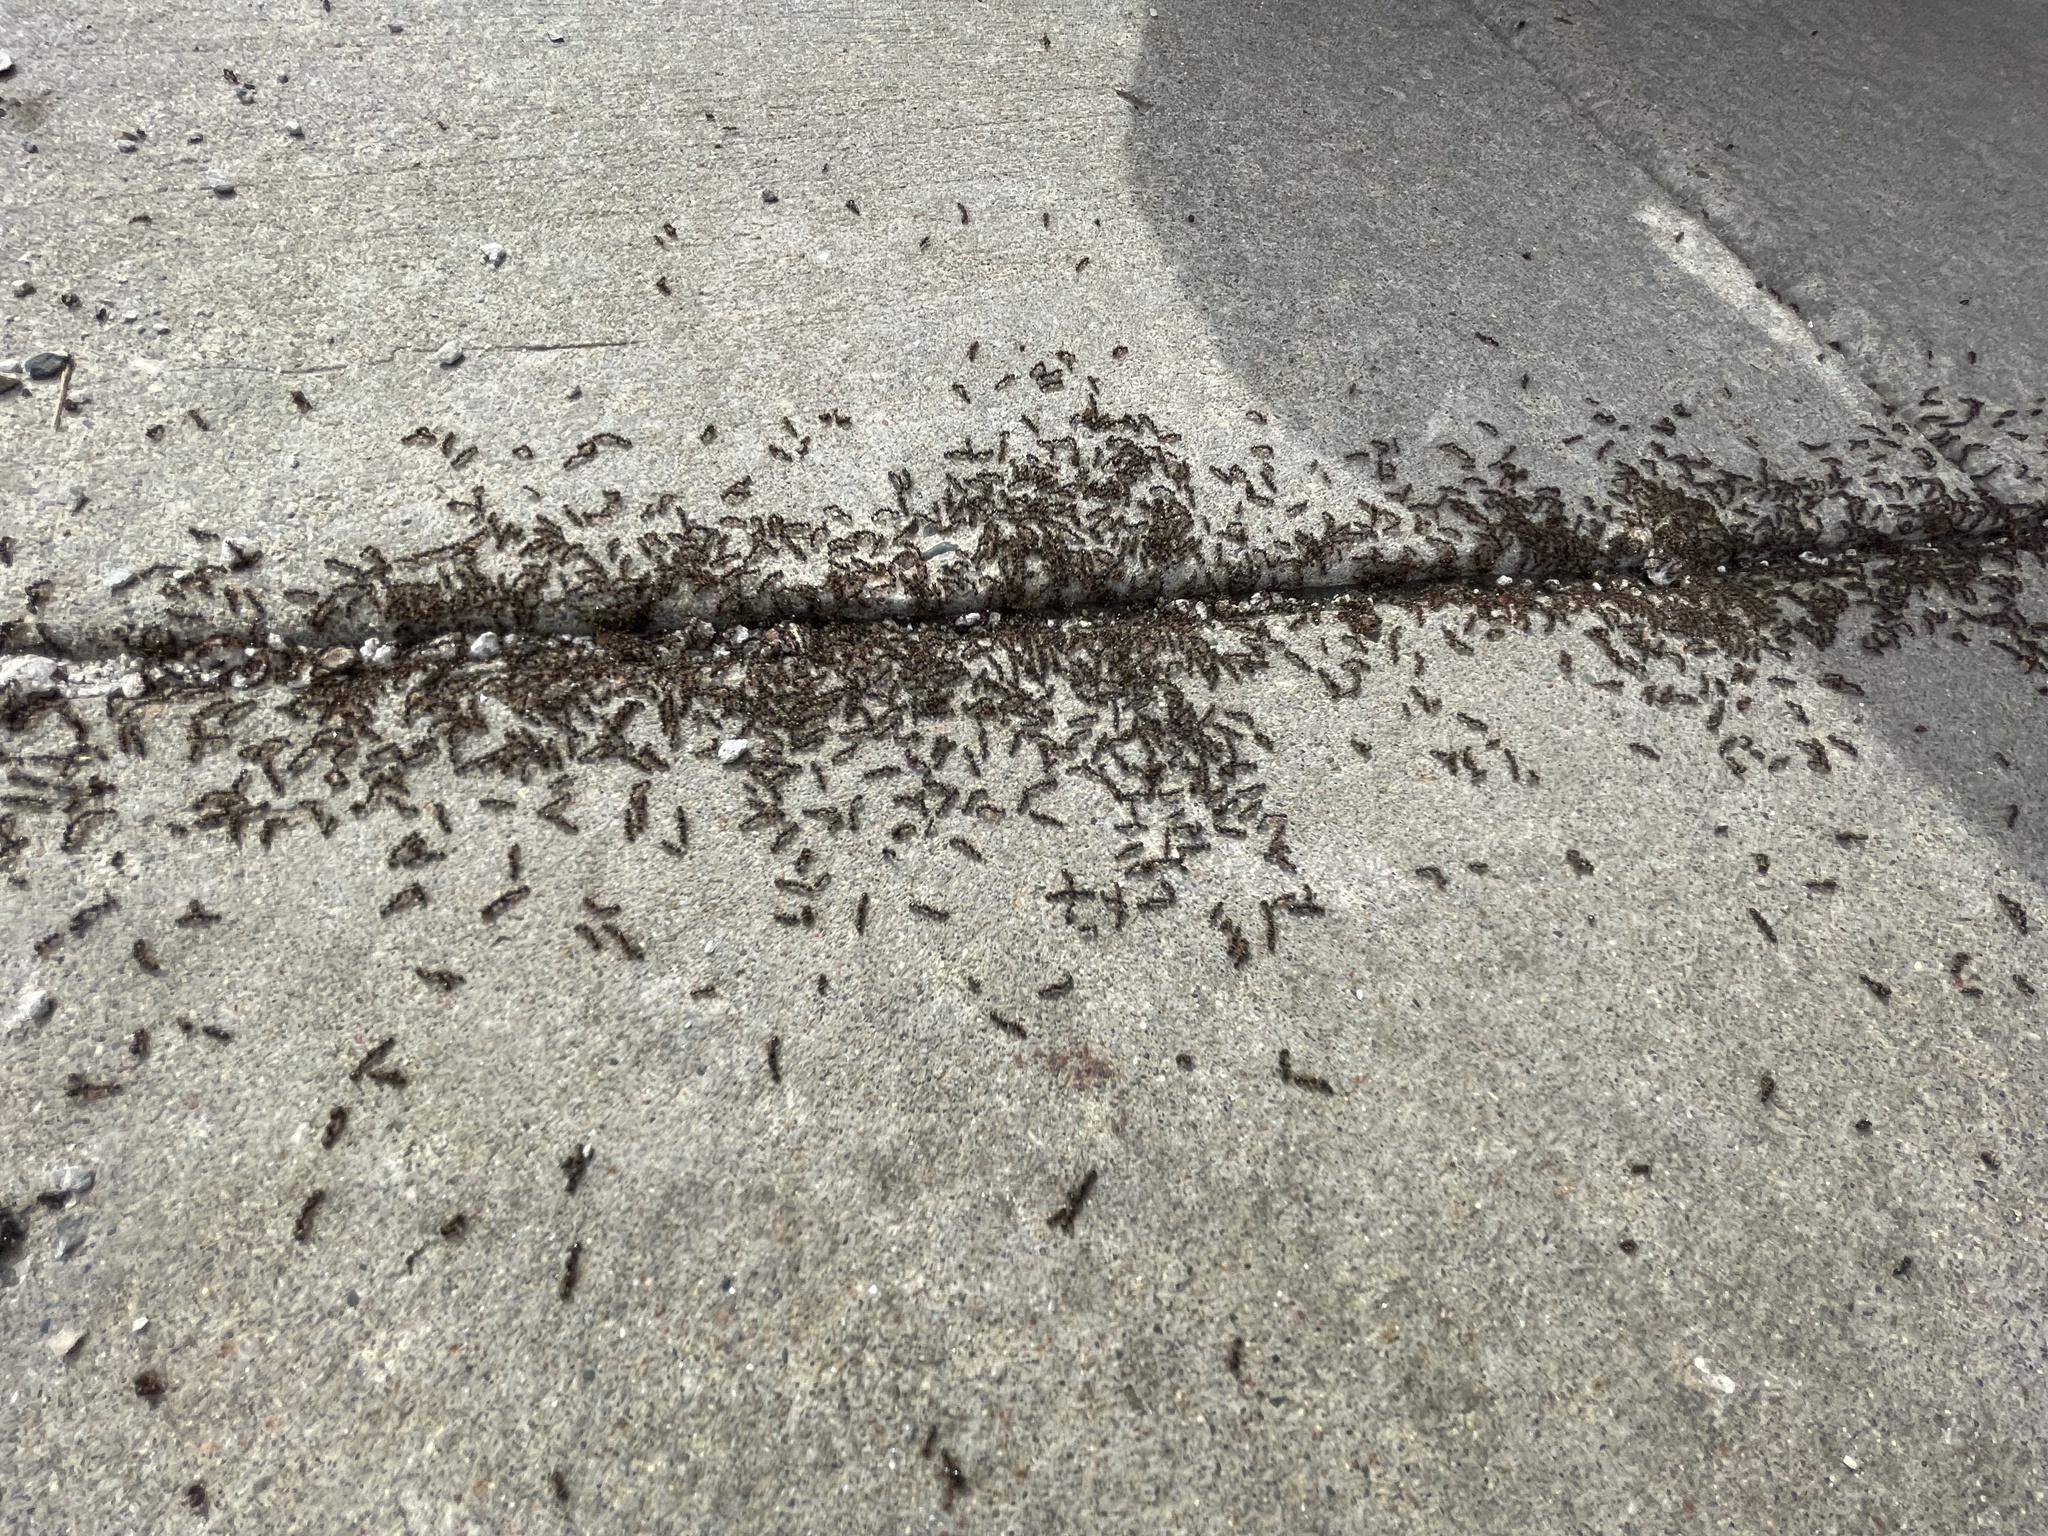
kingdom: Animalia
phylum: Arthropoda
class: Insecta
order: Hymenoptera
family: Formicidae
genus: Tetramorium
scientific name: Tetramorium immigrans
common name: Pavement ant
